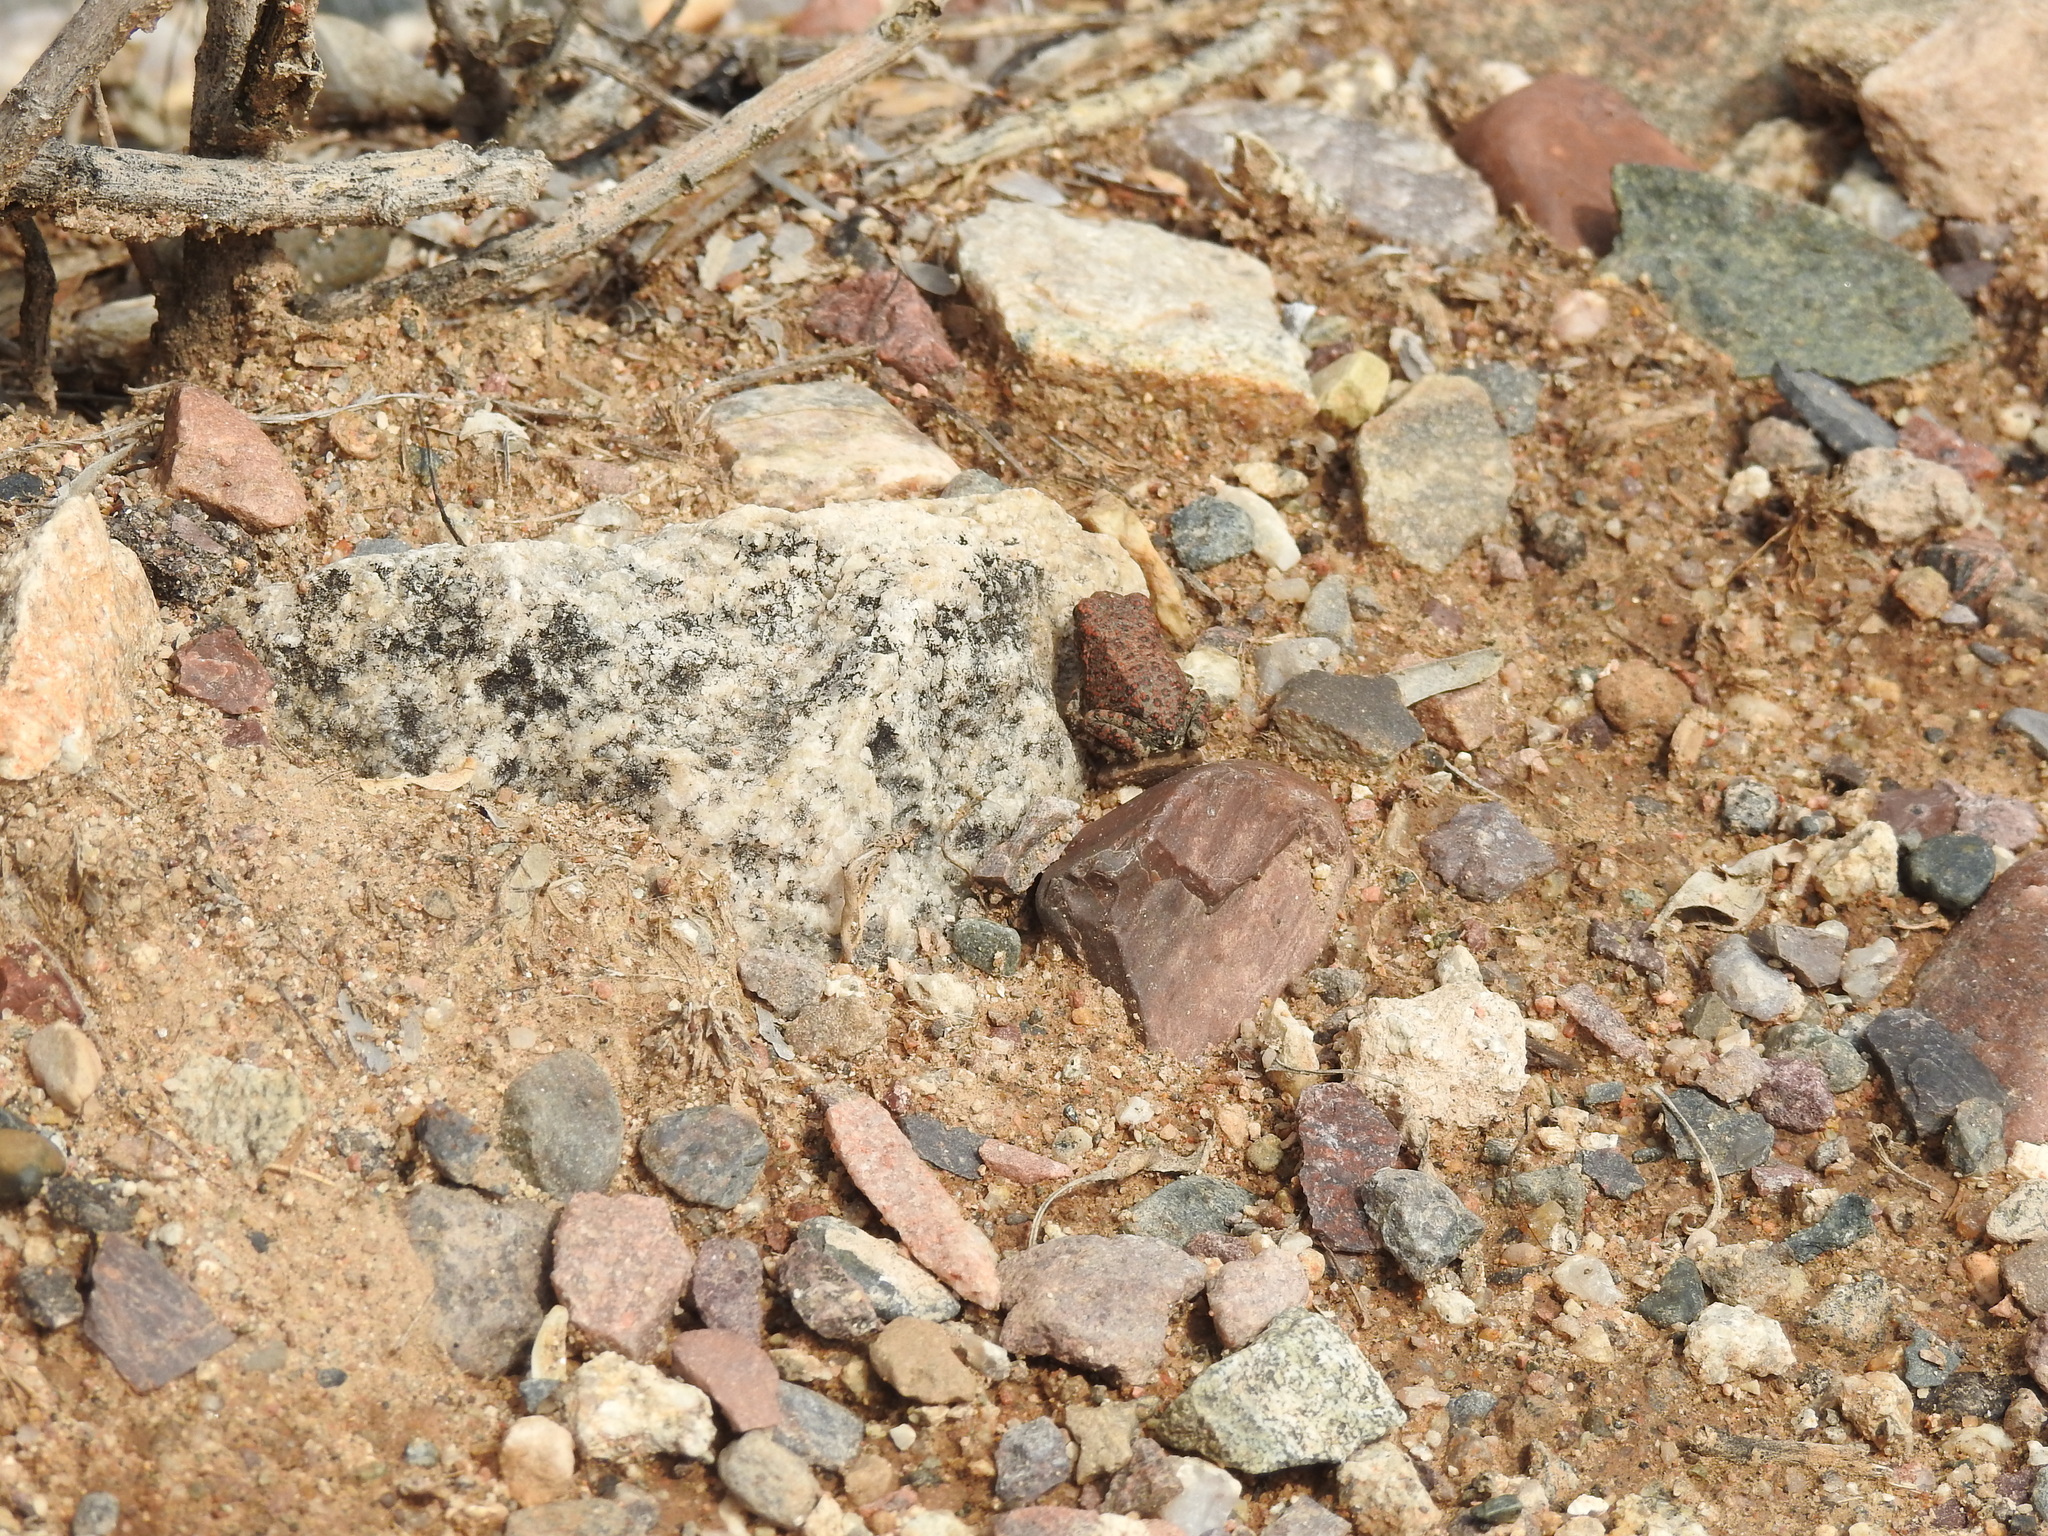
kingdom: Animalia
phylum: Chordata
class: Amphibia
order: Anura
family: Bufonidae
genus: Anaxyrus
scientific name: Anaxyrus punctatus
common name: Red-spotted toad
